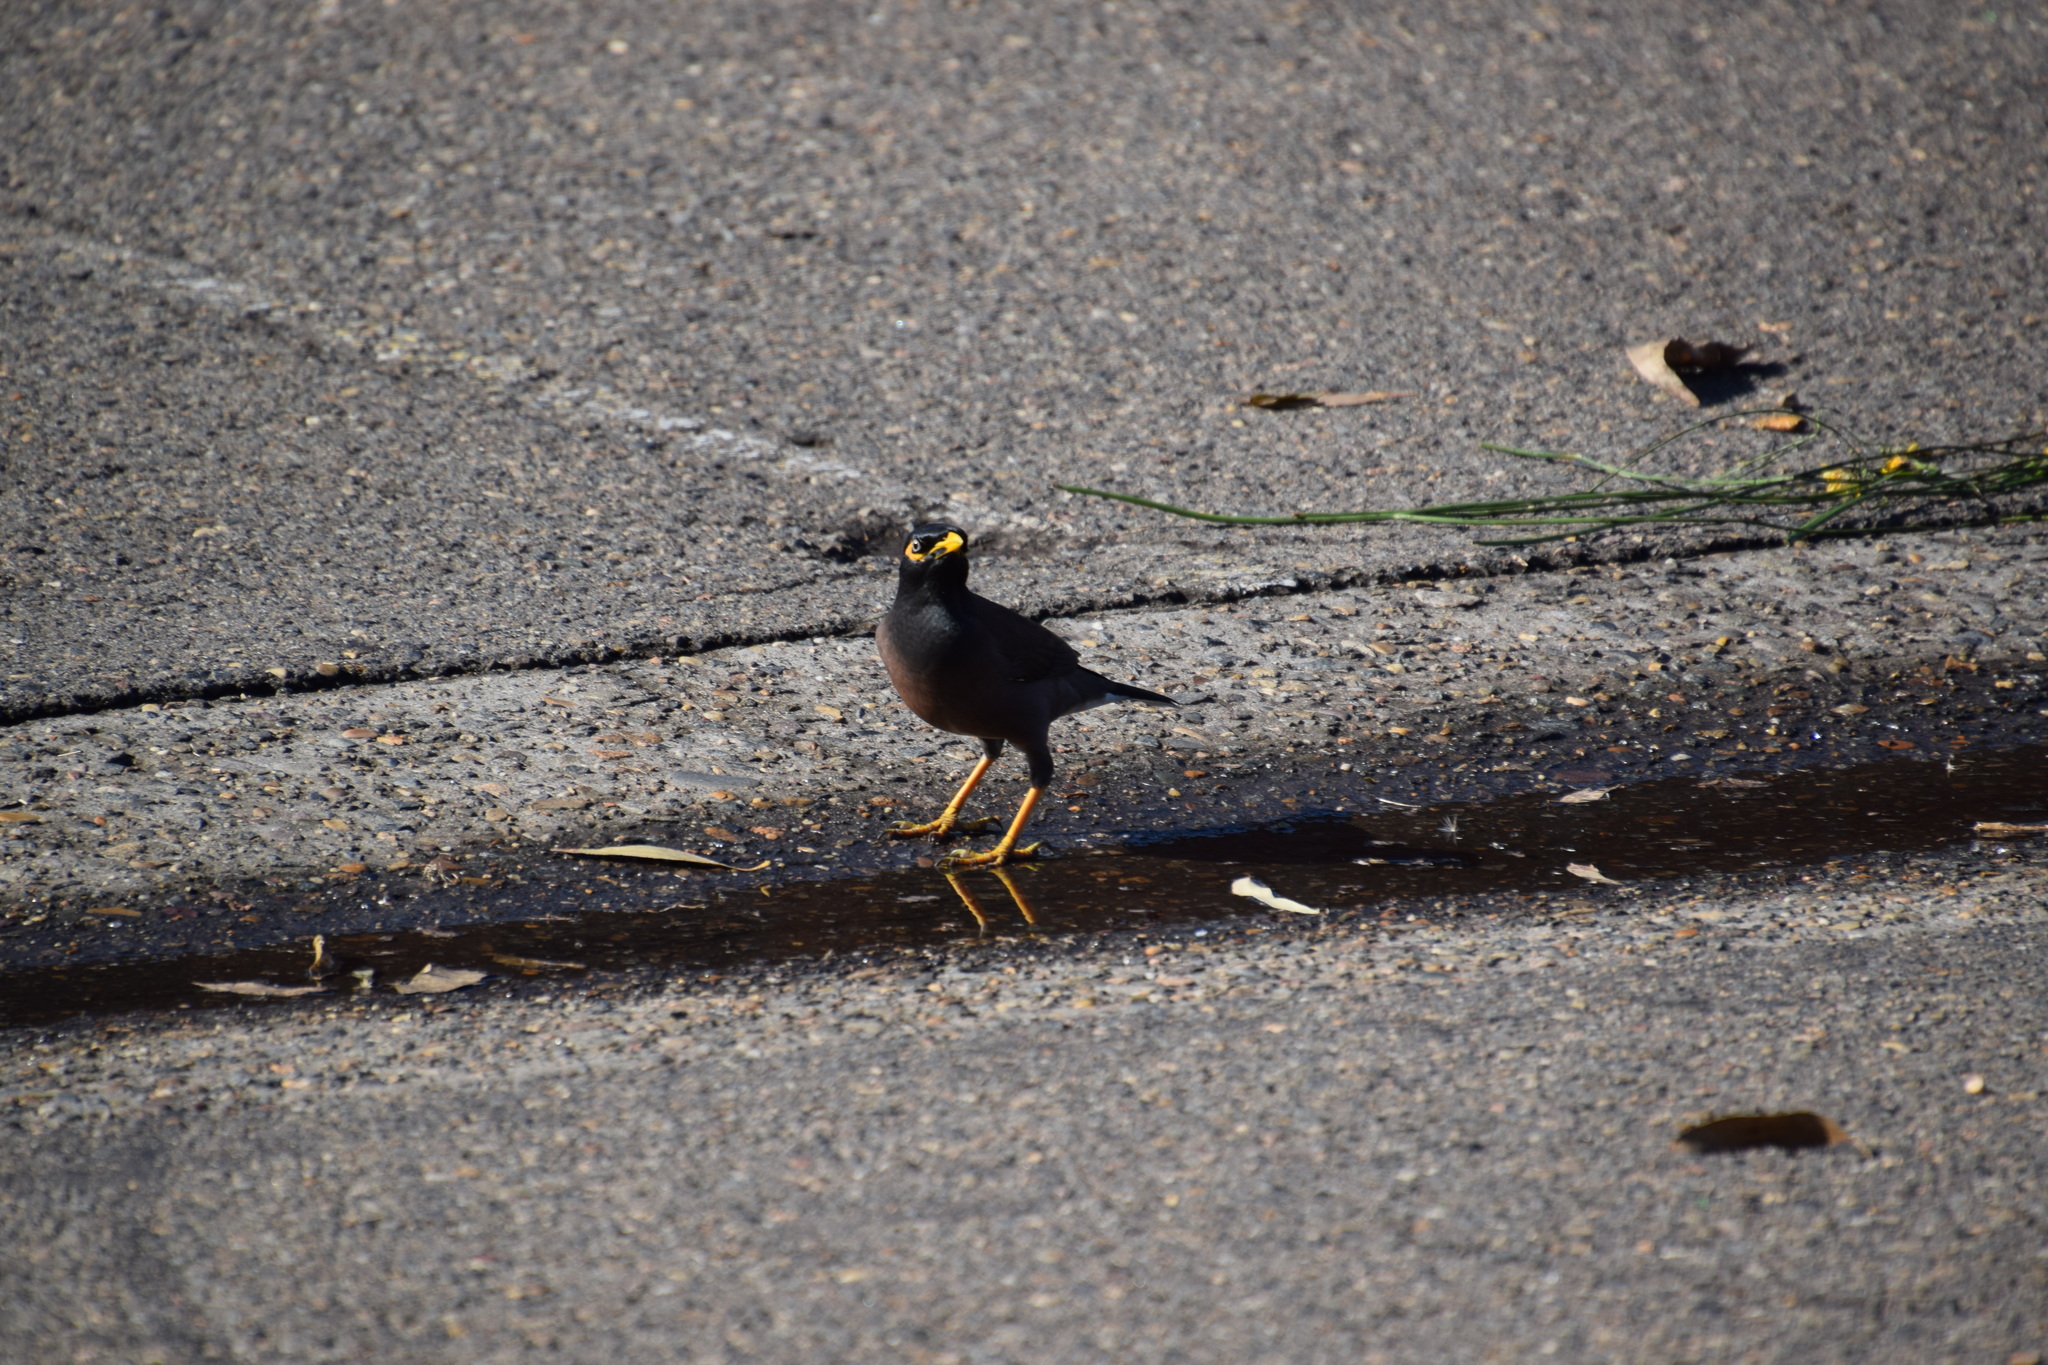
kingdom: Animalia
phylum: Chordata
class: Aves
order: Passeriformes
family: Sturnidae
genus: Acridotheres
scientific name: Acridotheres tristis
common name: Common myna
